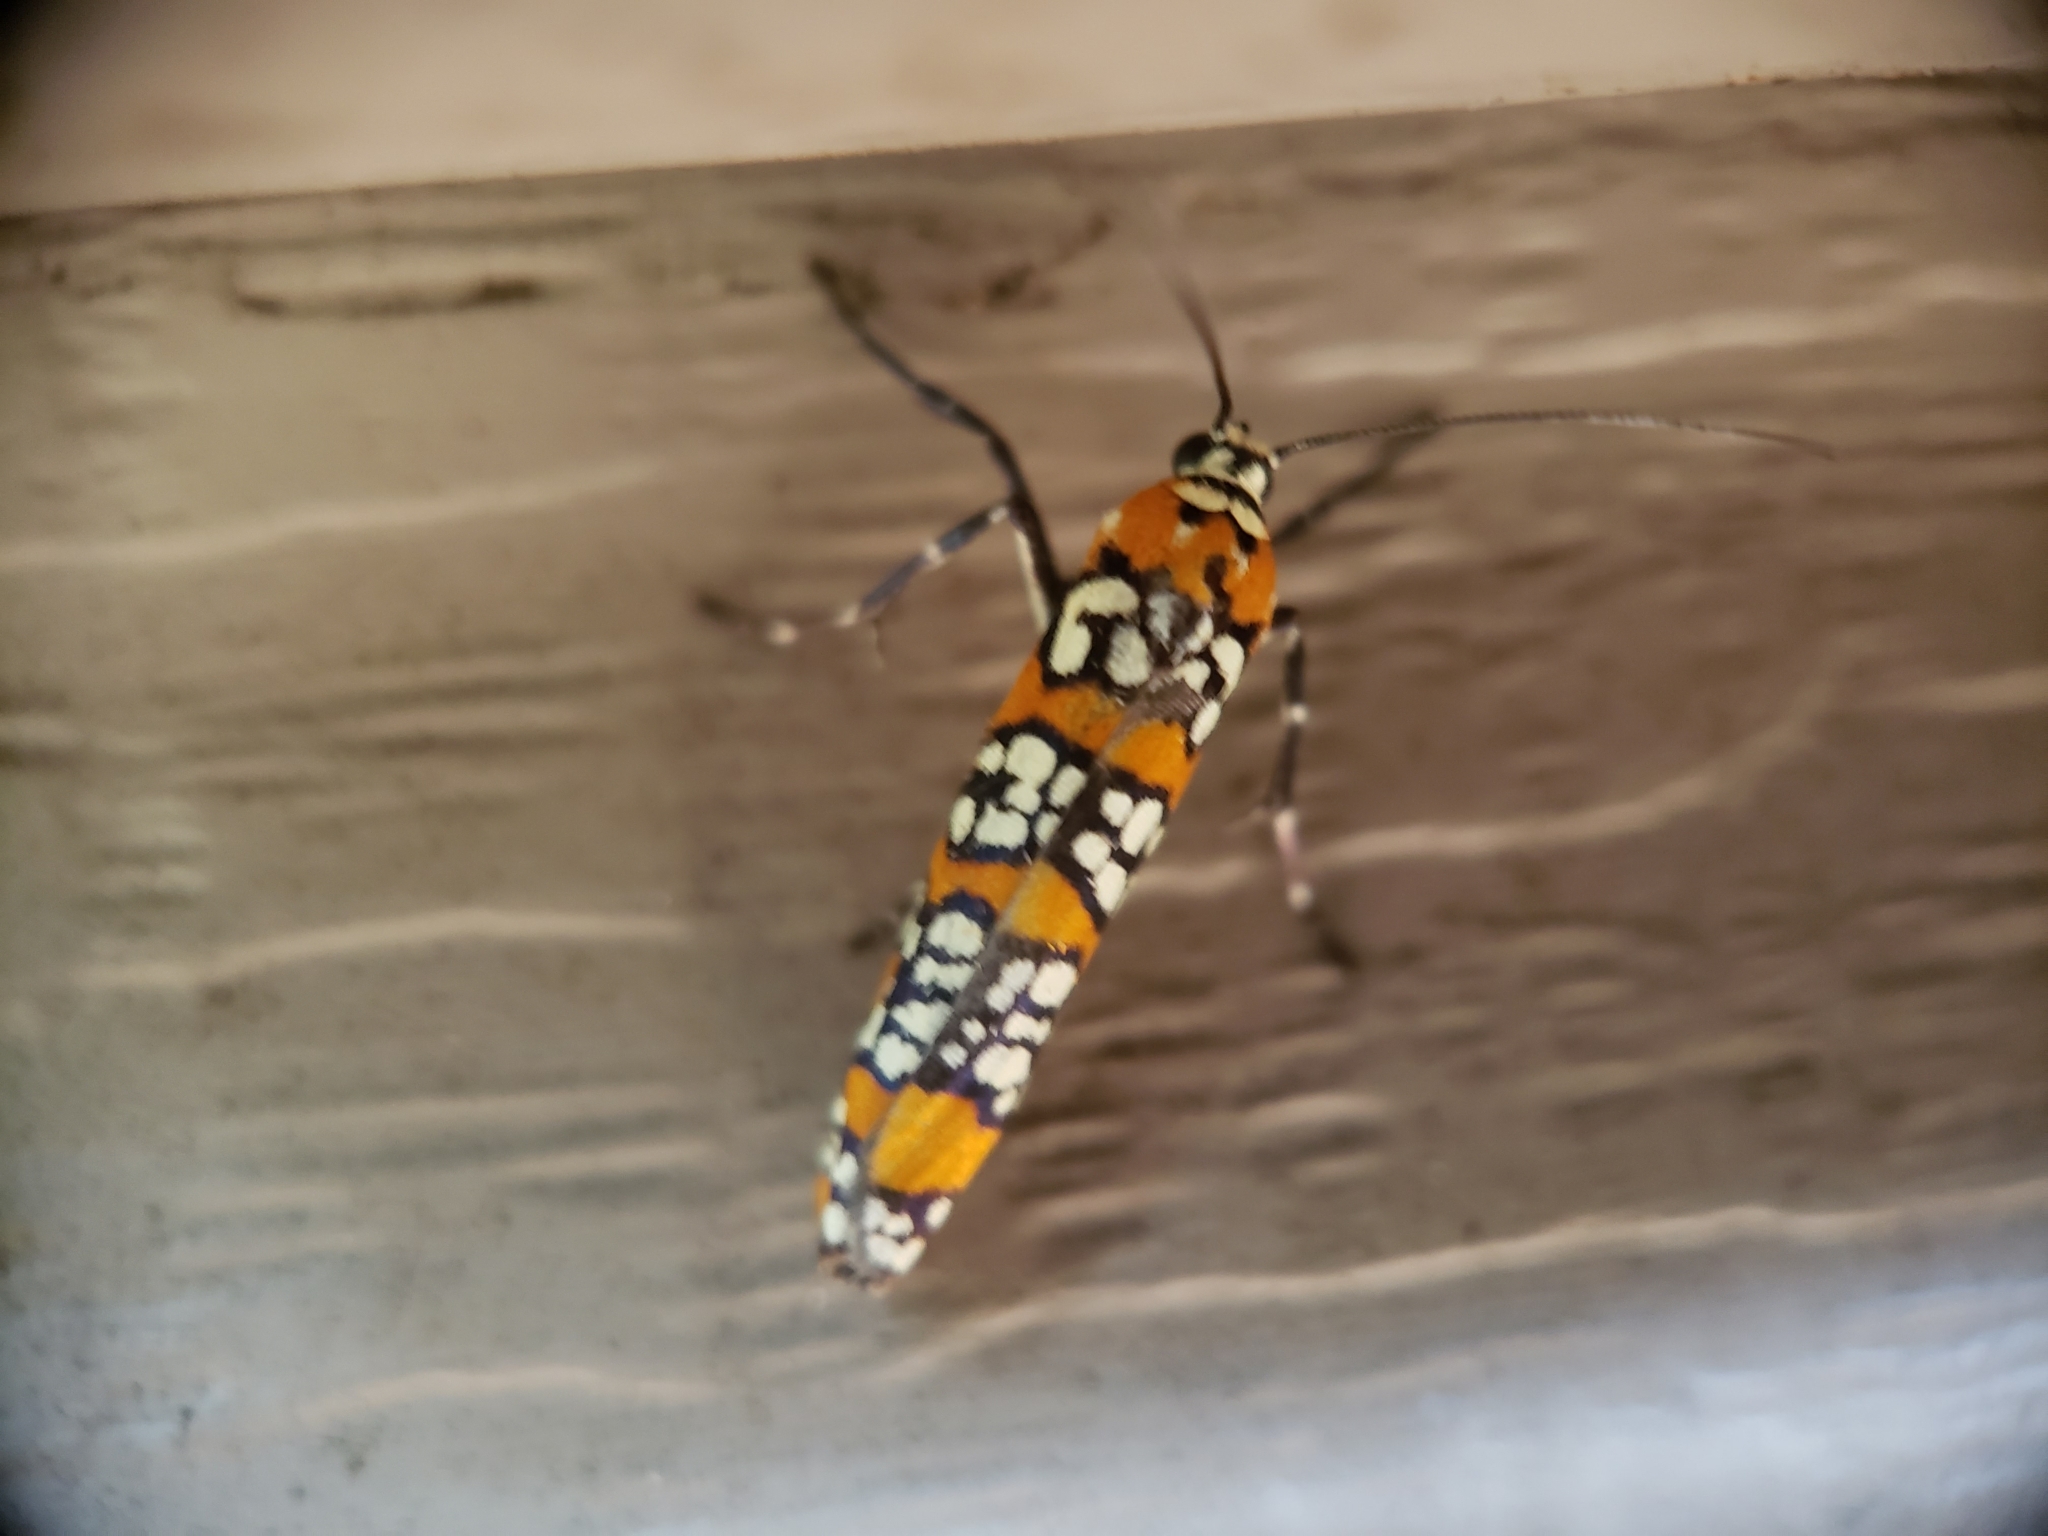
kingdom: Animalia
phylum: Arthropoda
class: Insecta
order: Lepidoptera
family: Attevidae
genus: Atteva
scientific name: Atteva punctella
